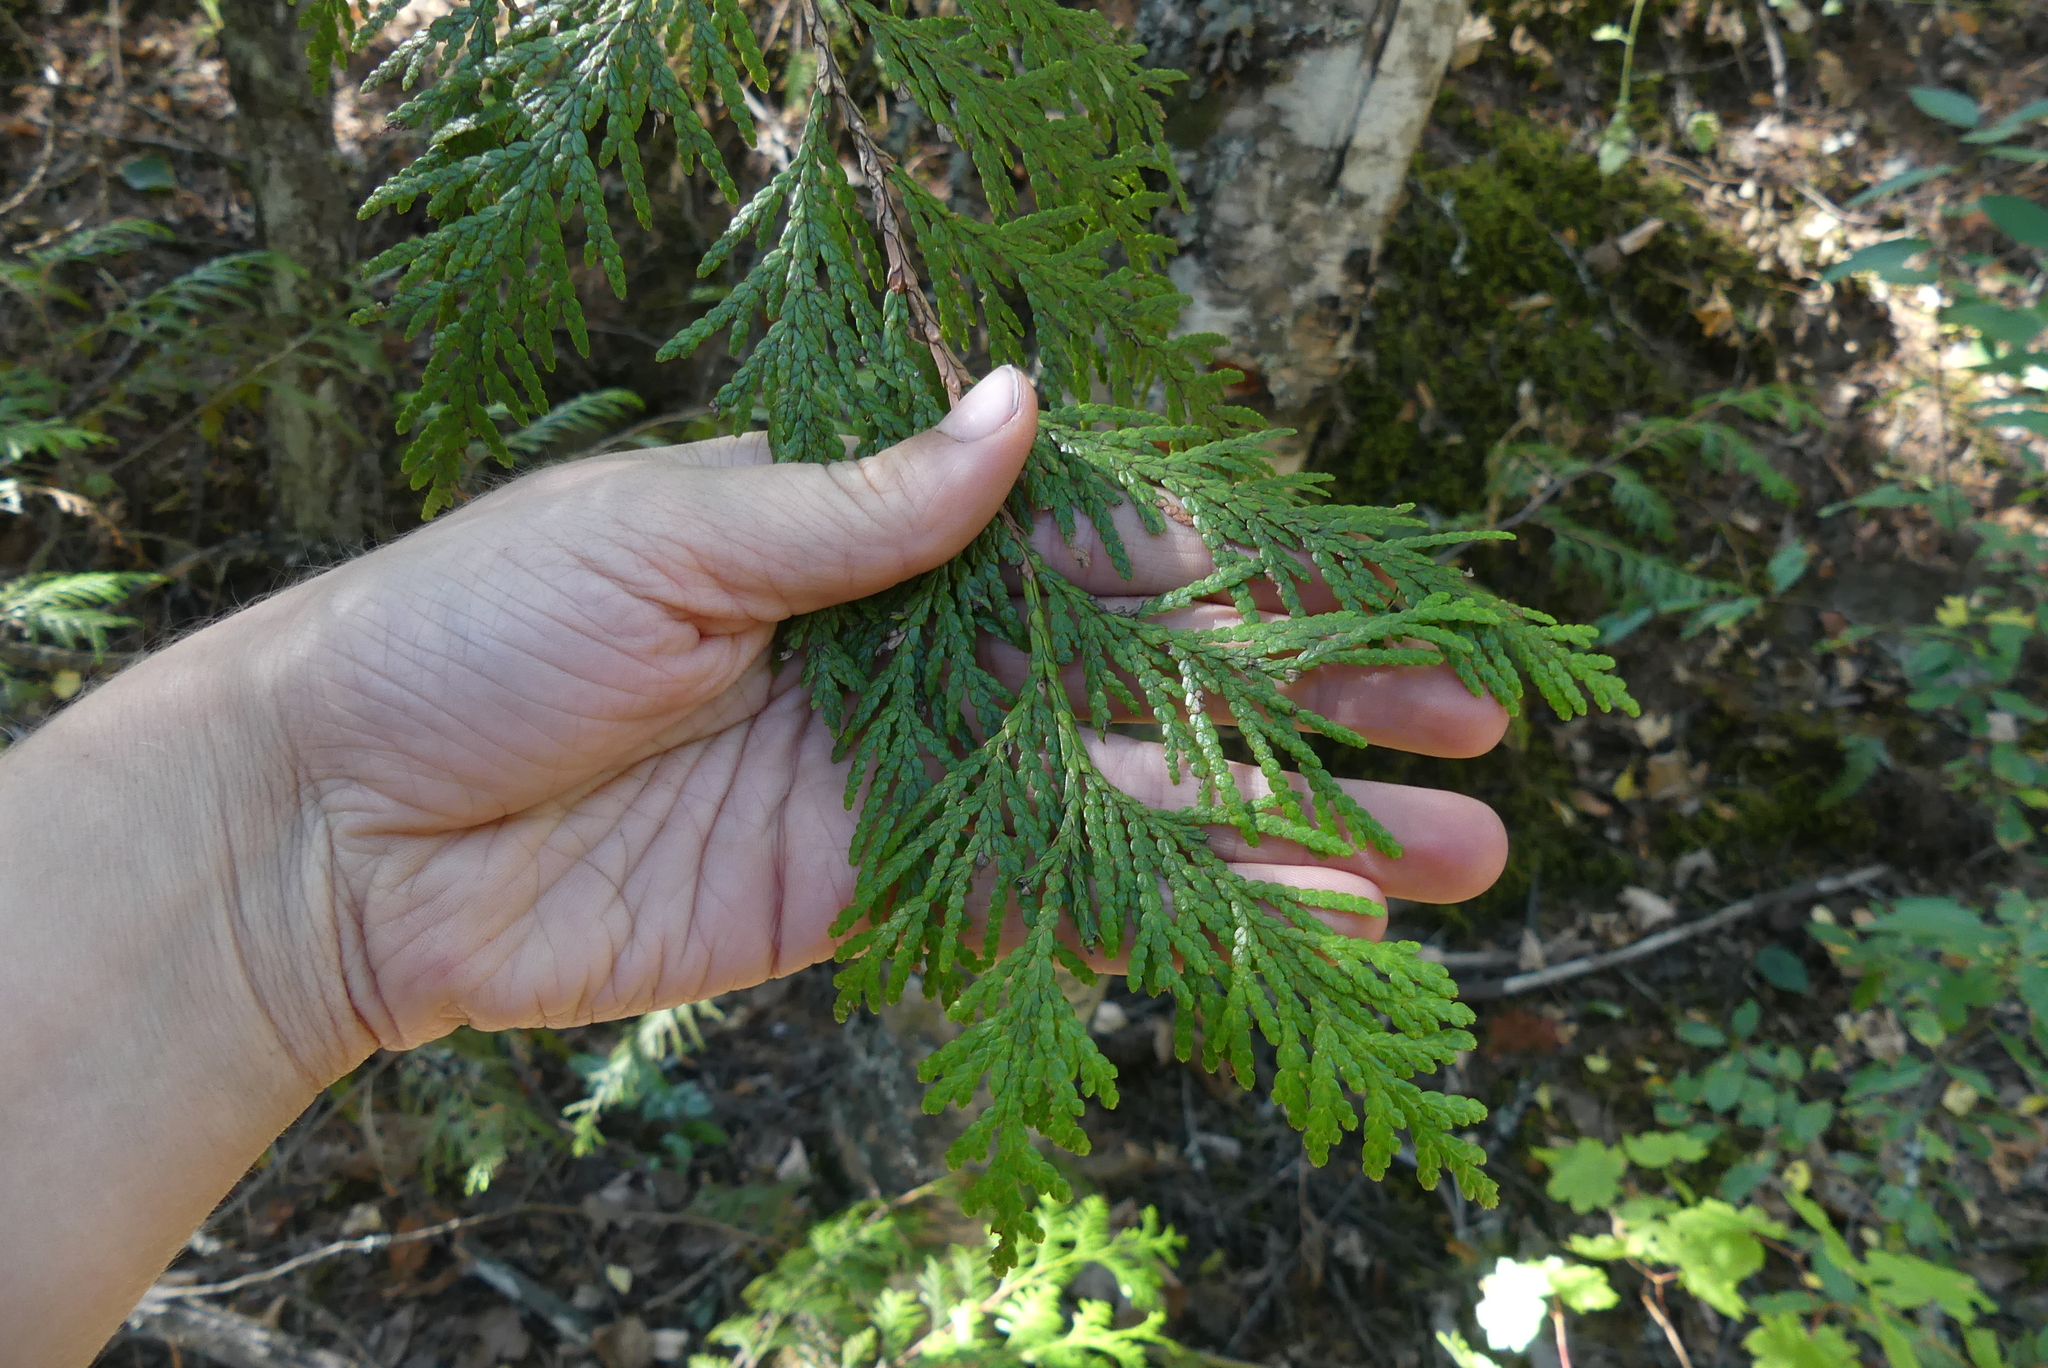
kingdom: Plantae
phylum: Tracheophyta
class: Pinopsida
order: Pinales
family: Cupressaceae
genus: Thuja
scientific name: Thuja plicata
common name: Western red-cedar
